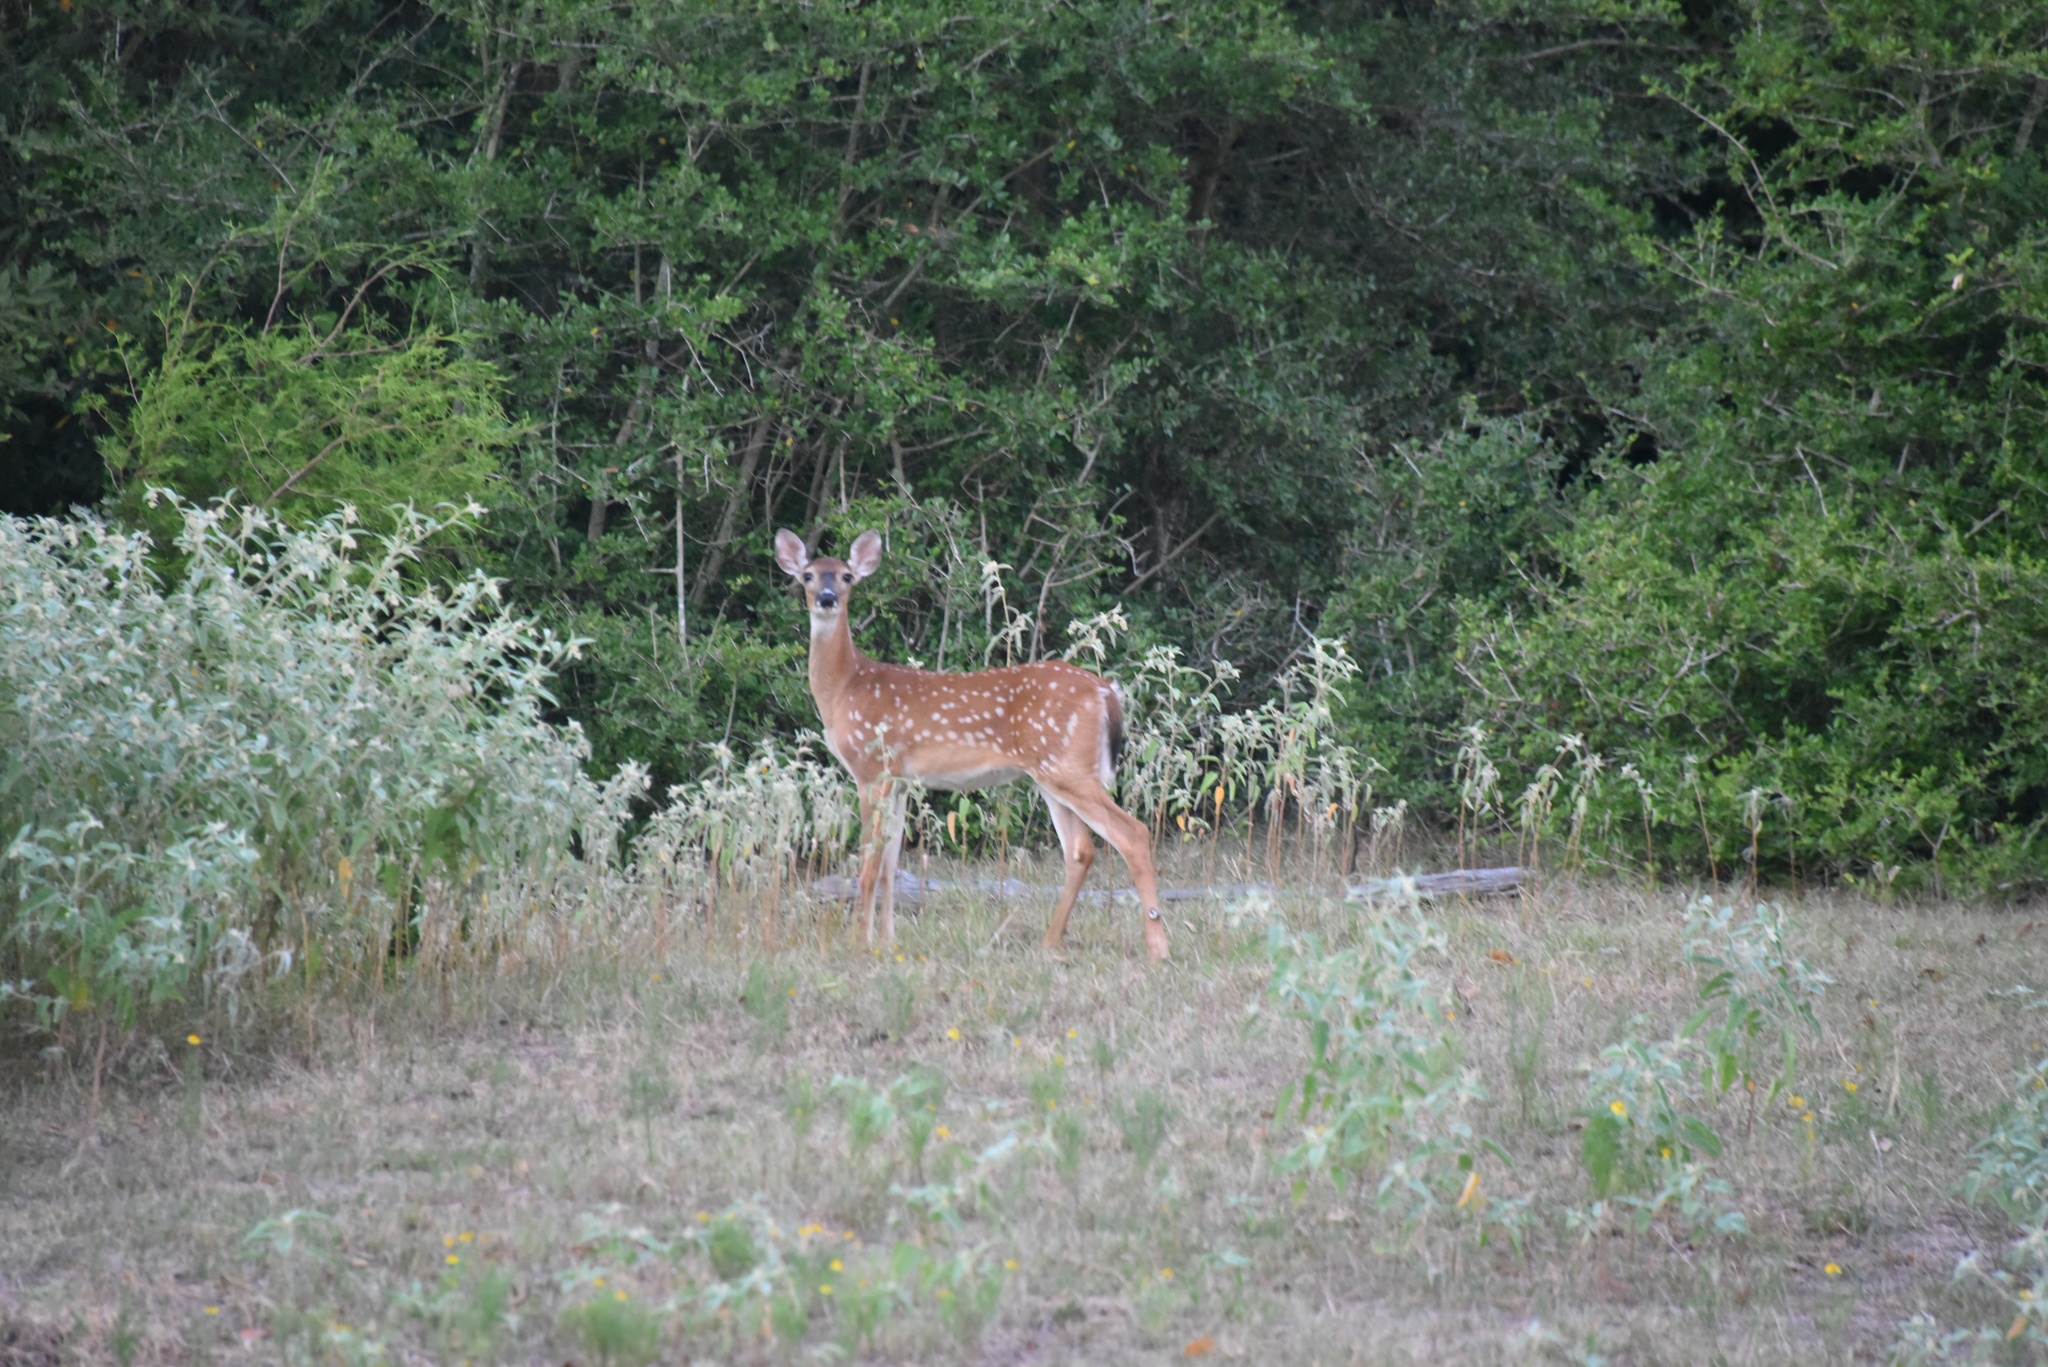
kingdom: Animalia
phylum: Chordata
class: Mammalia
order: Artiodactyla
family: Cervidae
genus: Odocoileus
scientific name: Odocoileus virginianus
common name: White-tailed deer
